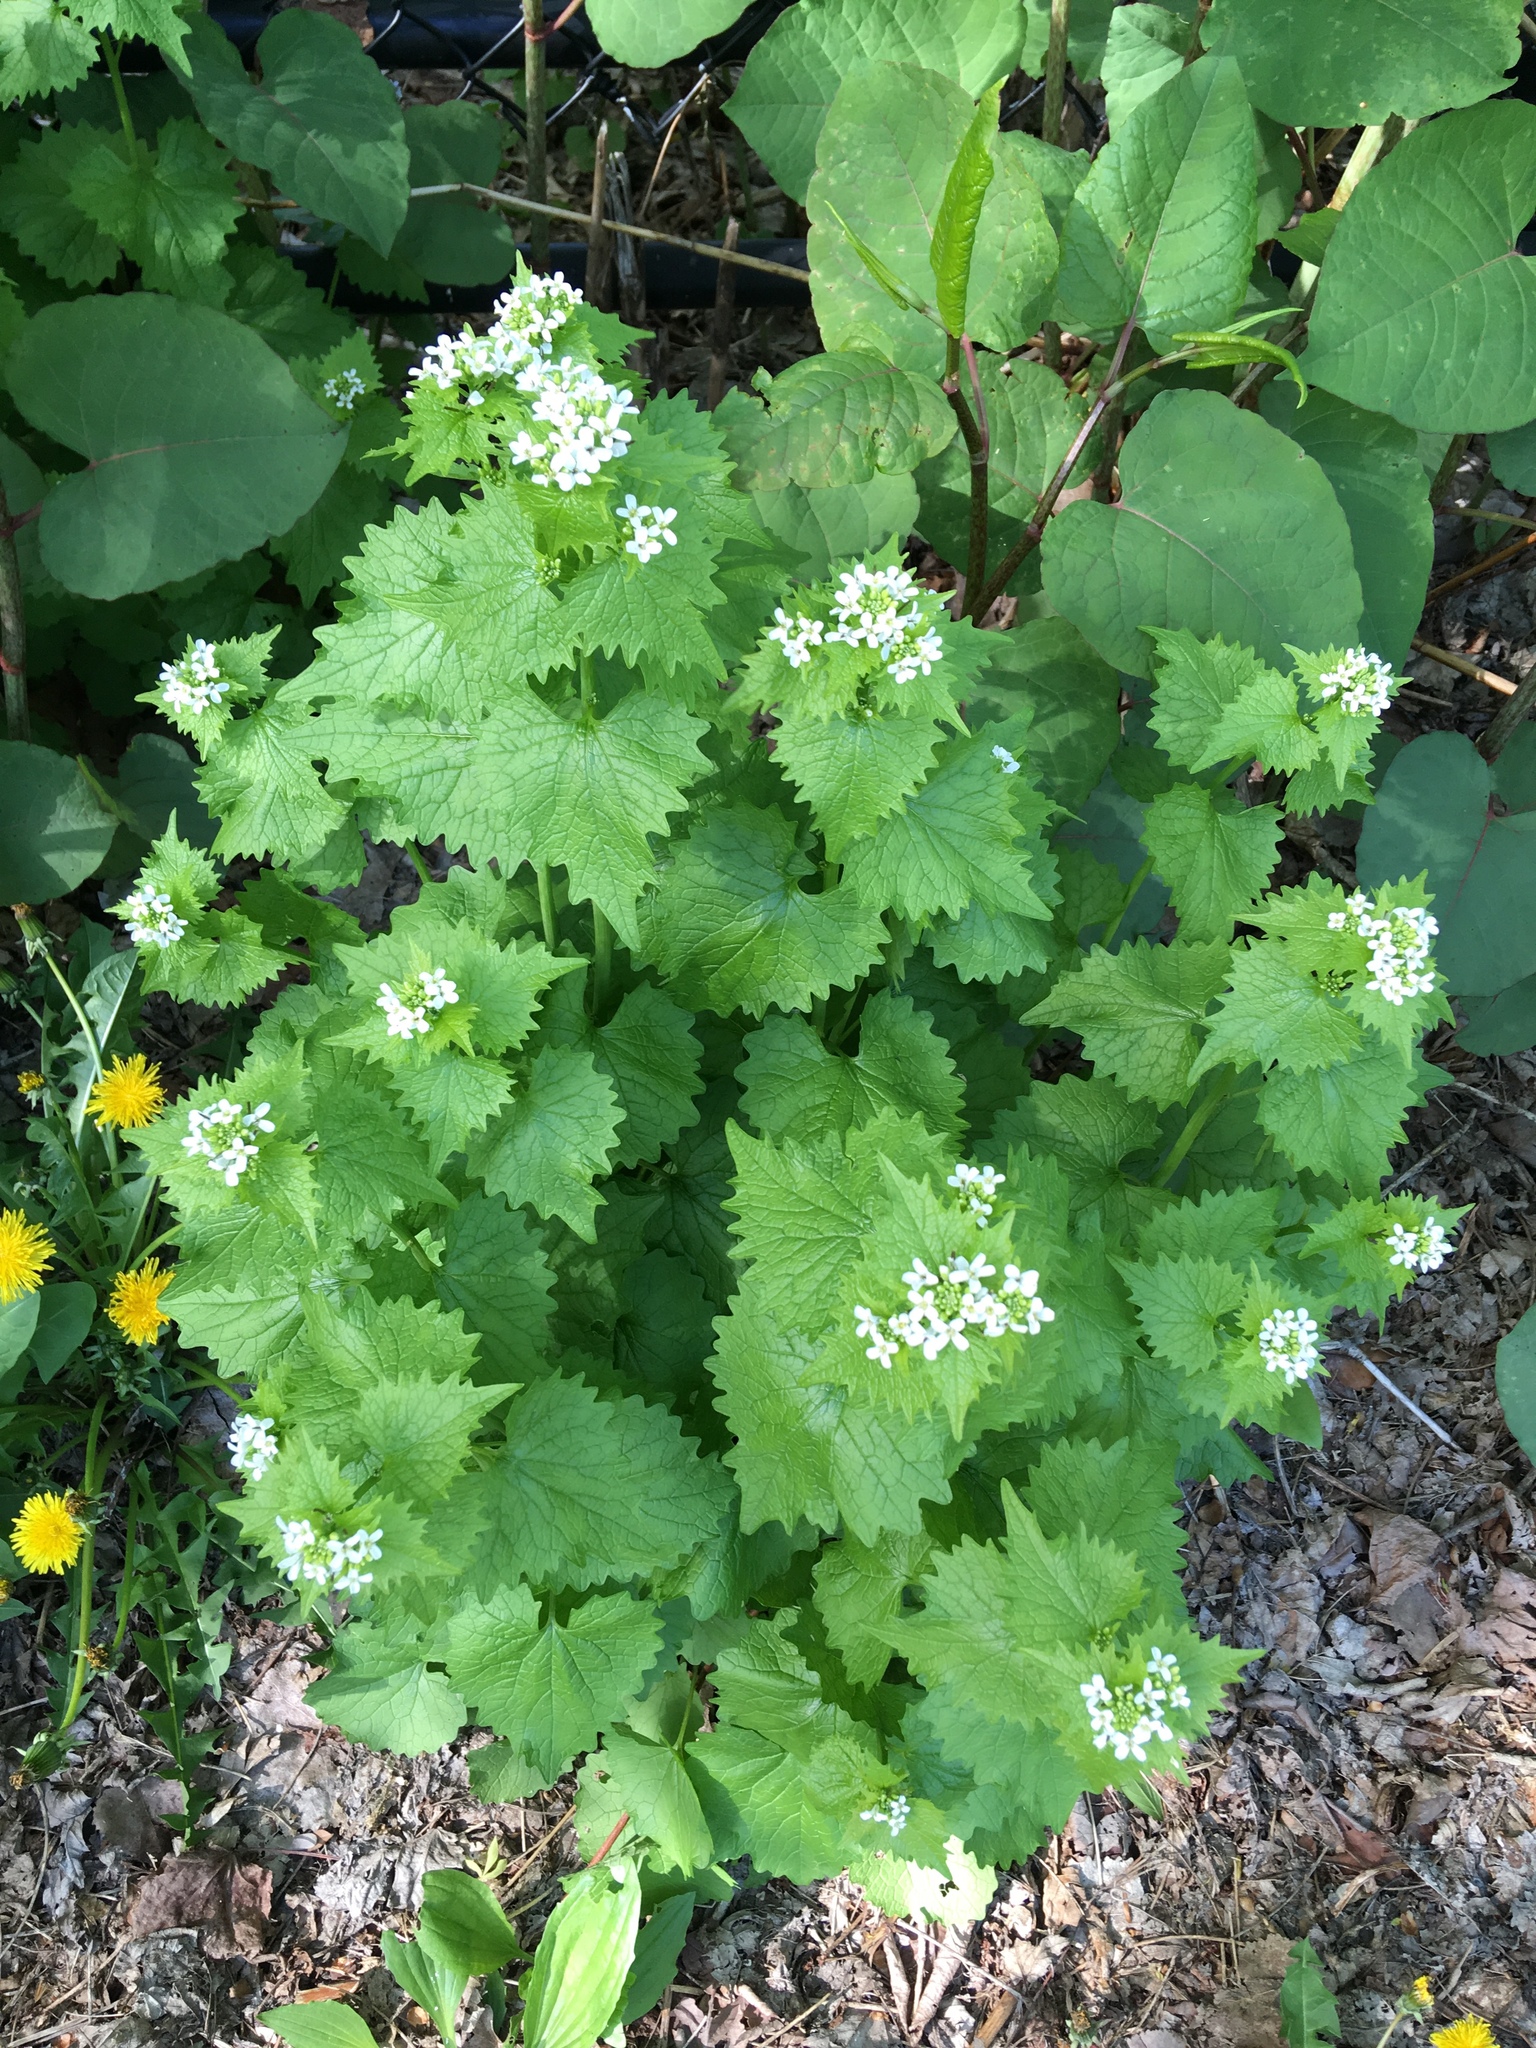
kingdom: Plantae
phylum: Tracheophyta
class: Magnoliopsida
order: Brassicales
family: Brassicaceae
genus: Alliaria
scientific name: Alliaria petiolata
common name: Garlic mustard
